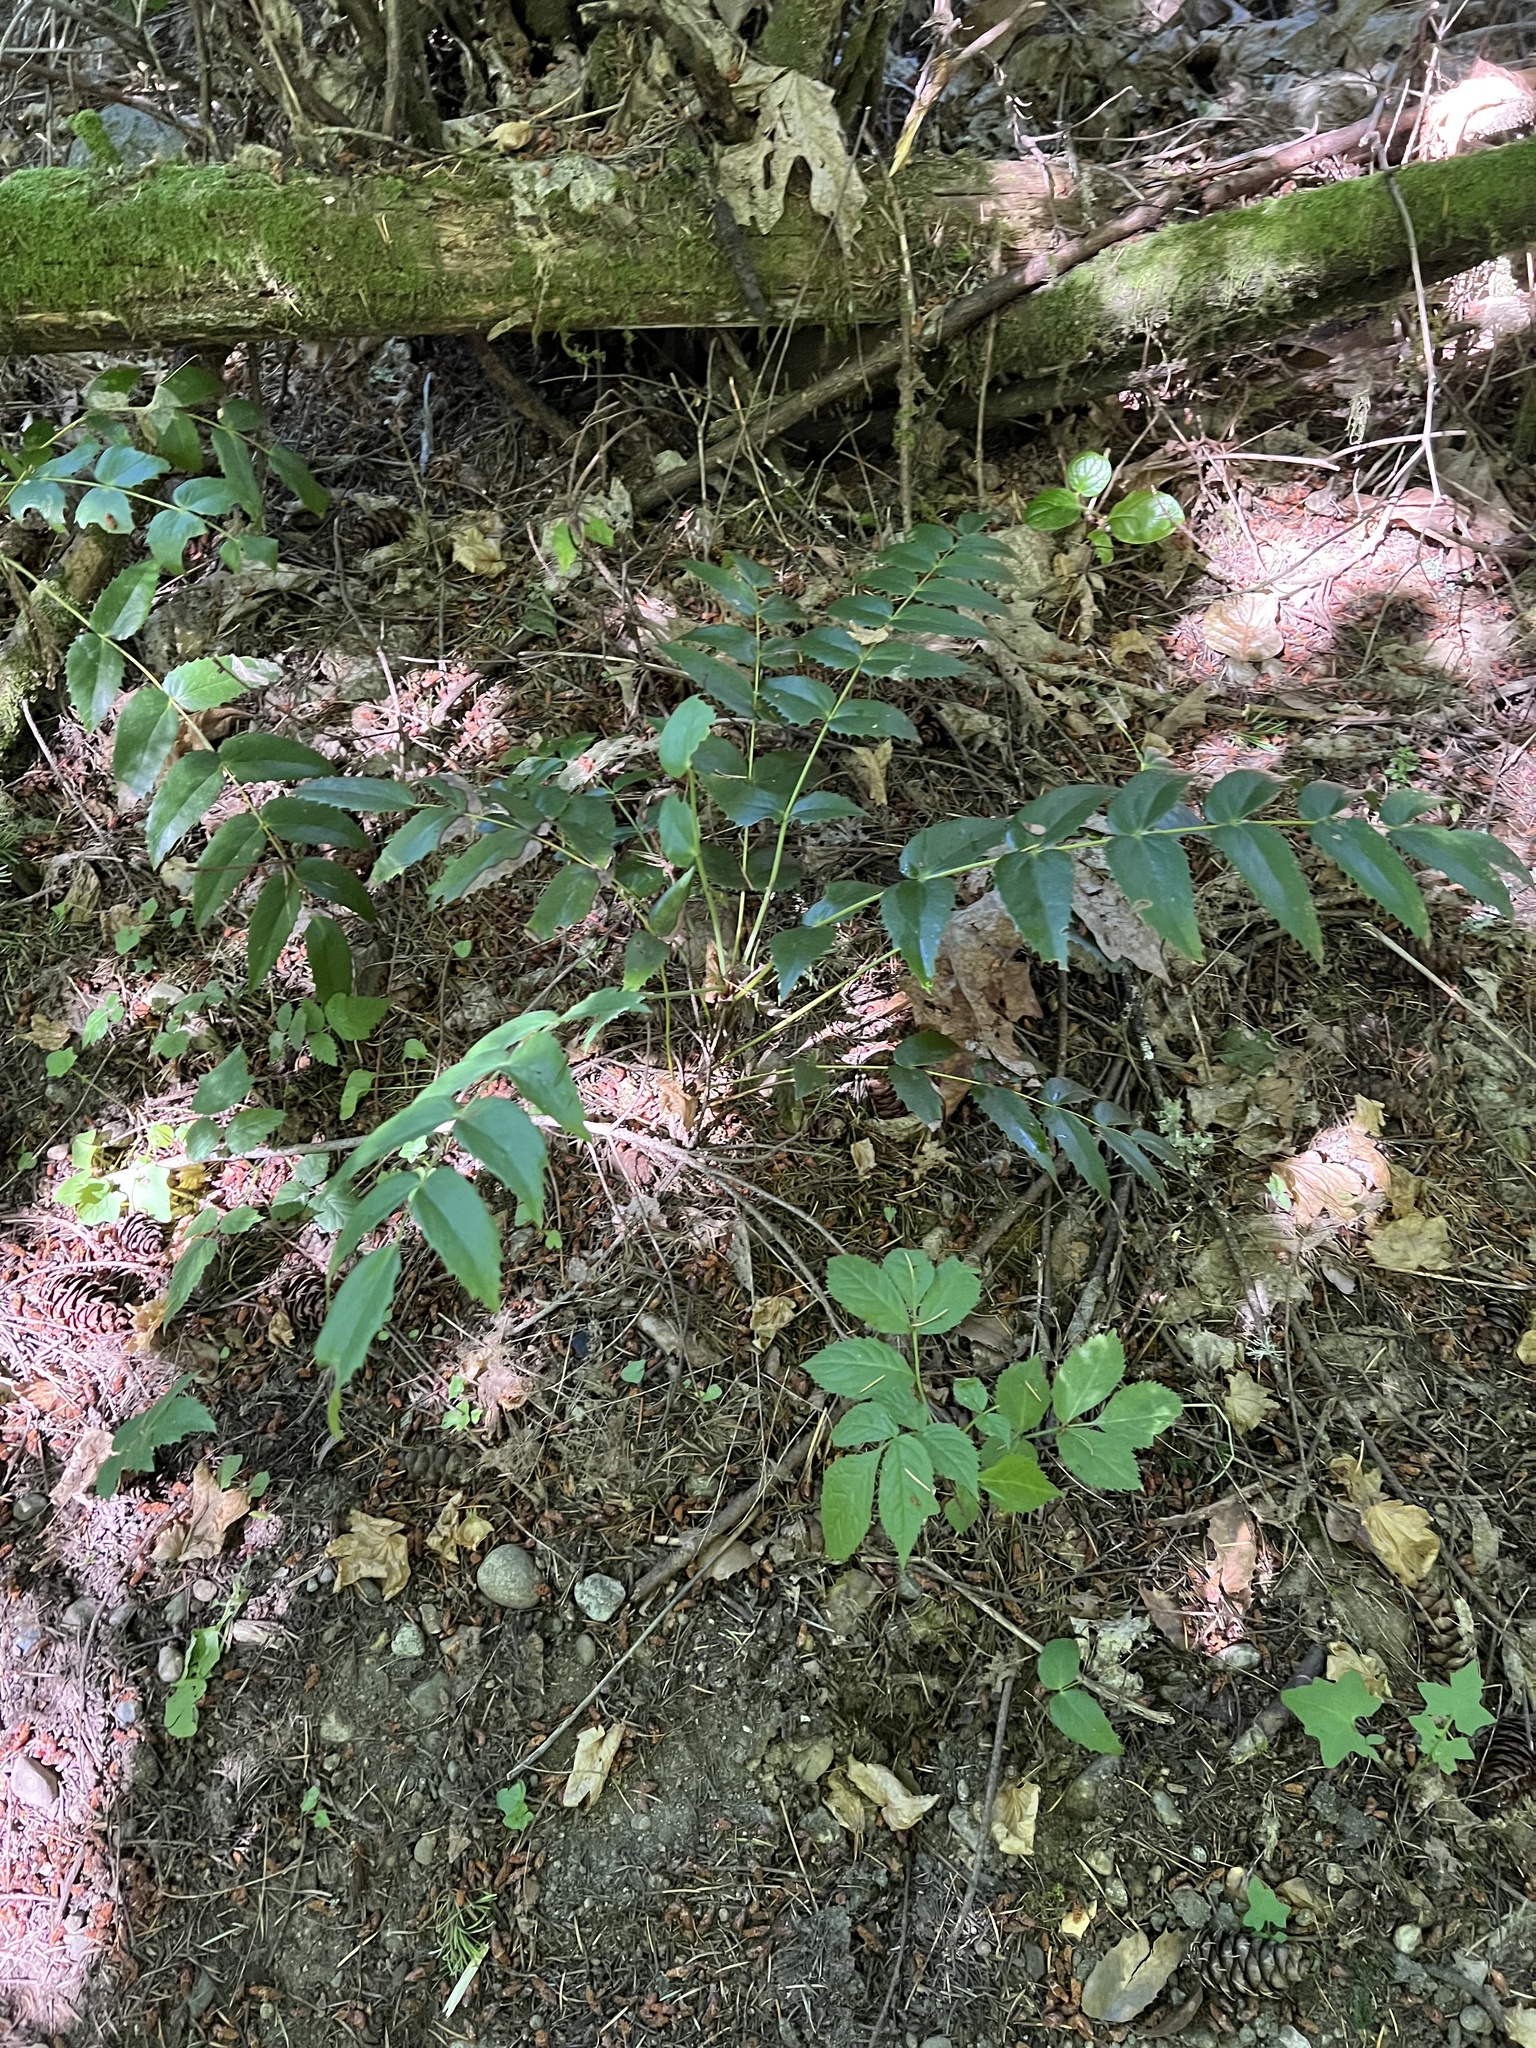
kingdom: Plantae
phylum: Tracheophyta
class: Magnoliopsida
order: Ranunculales
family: Berberidaceae
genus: Mahonia
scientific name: Mahonia nervosa
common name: Cascade oregon-grape
